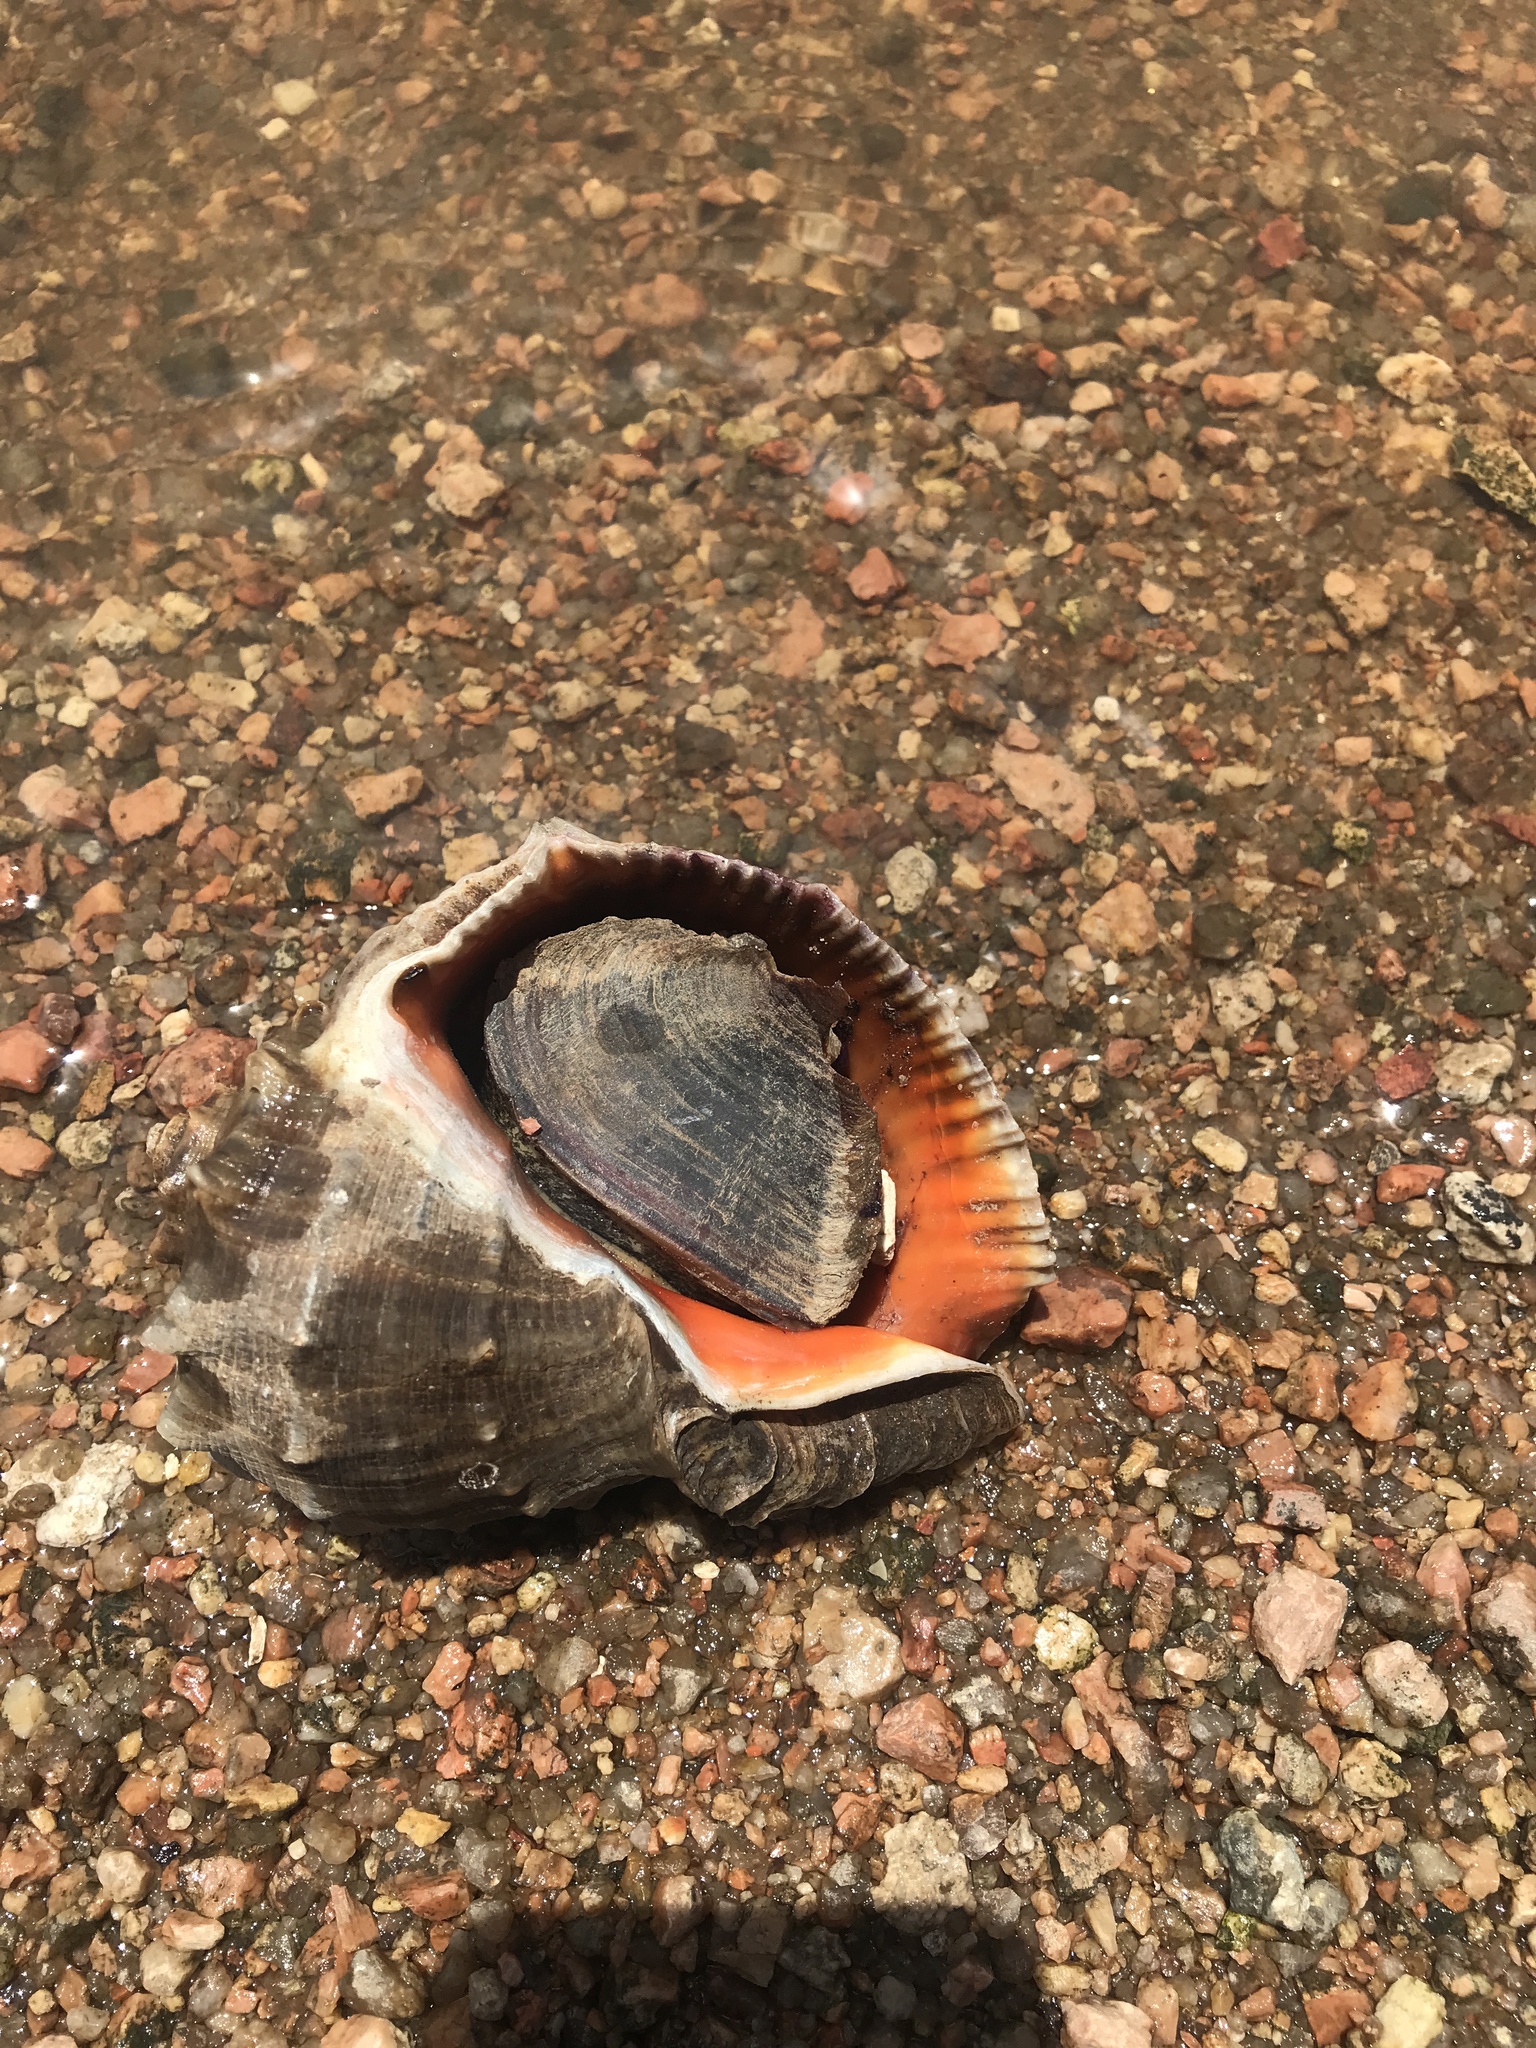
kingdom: Animalia
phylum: Mollusca
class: Gastropoda
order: Neogastropoda
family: Muricidae
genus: Rapana
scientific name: Rapana venosa
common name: Veined rapa whelk
